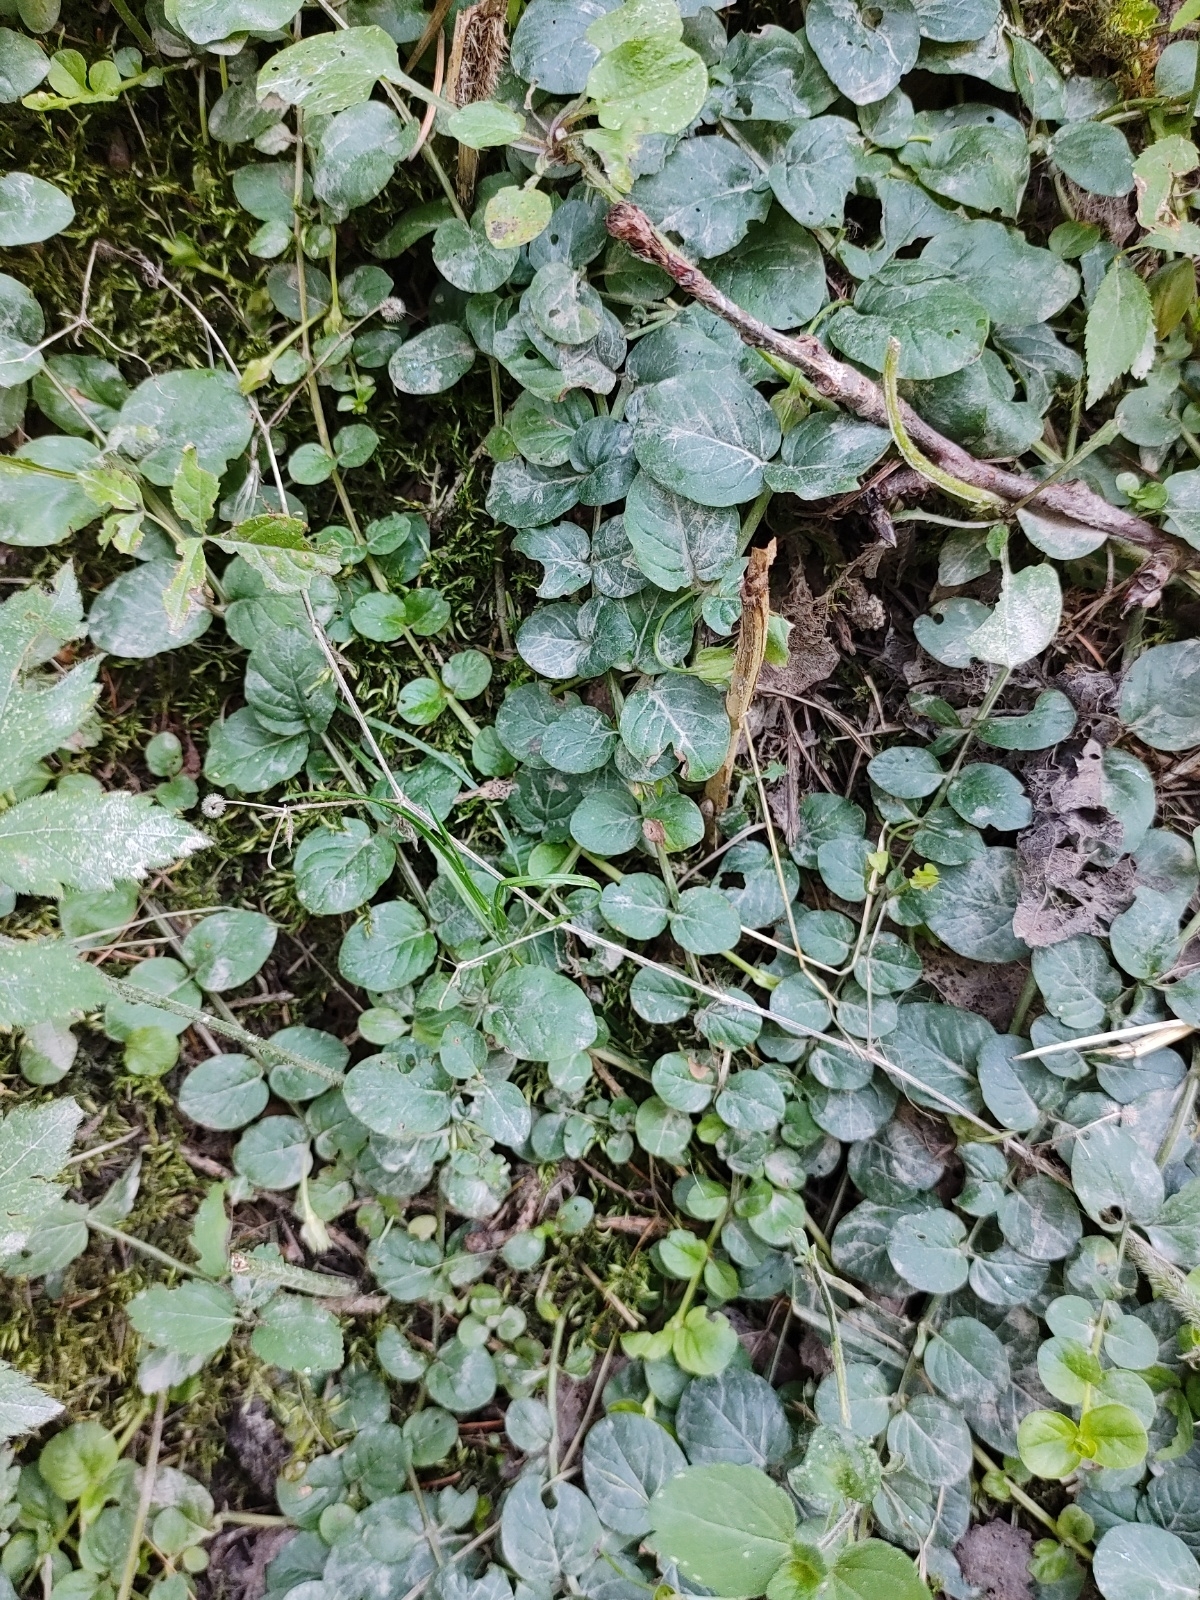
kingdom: Plantae
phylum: Tracheophyta
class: Magnoliopsida
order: Ericales
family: Primulaceae
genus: Lysimachia
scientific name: Lysimachia nummularia
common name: Moneywort
